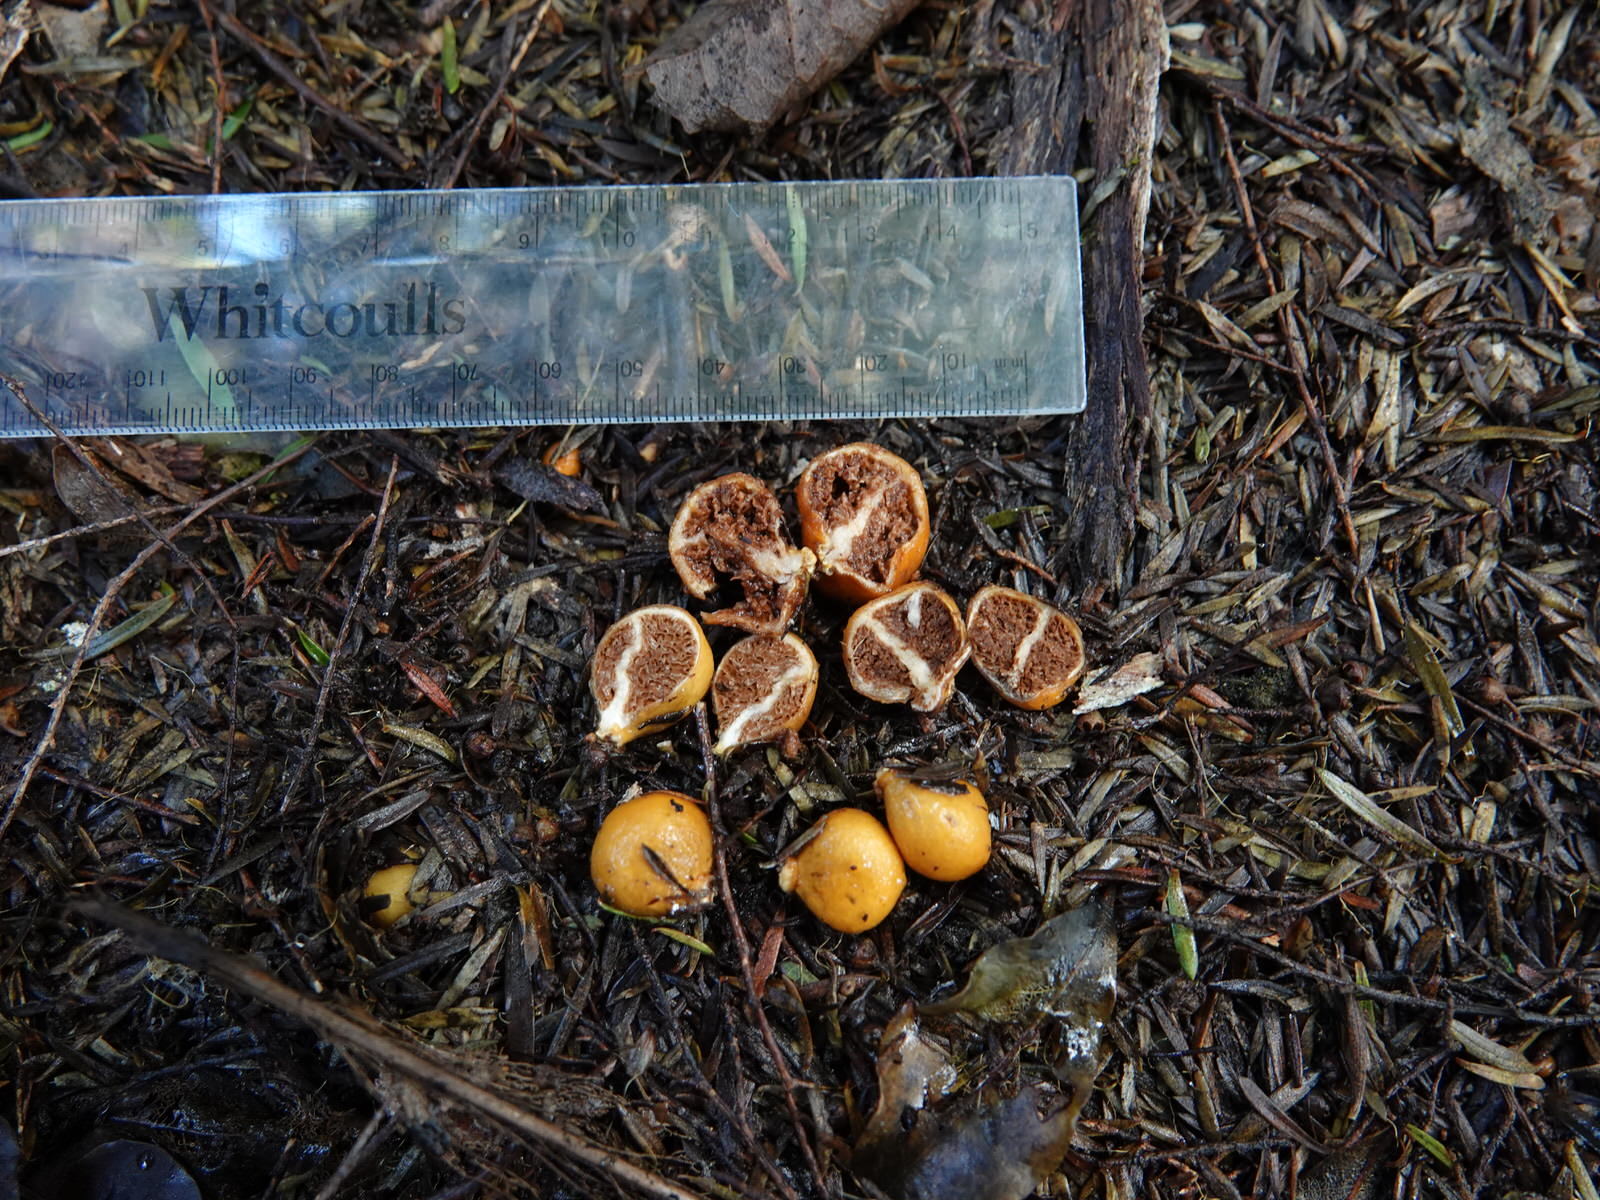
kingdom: Fungi
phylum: Basidiomycota
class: Agaricomycetes
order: Agaricales
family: Cortinariaceae
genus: Cortinarius
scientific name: Cortinarius peraurantiacus
